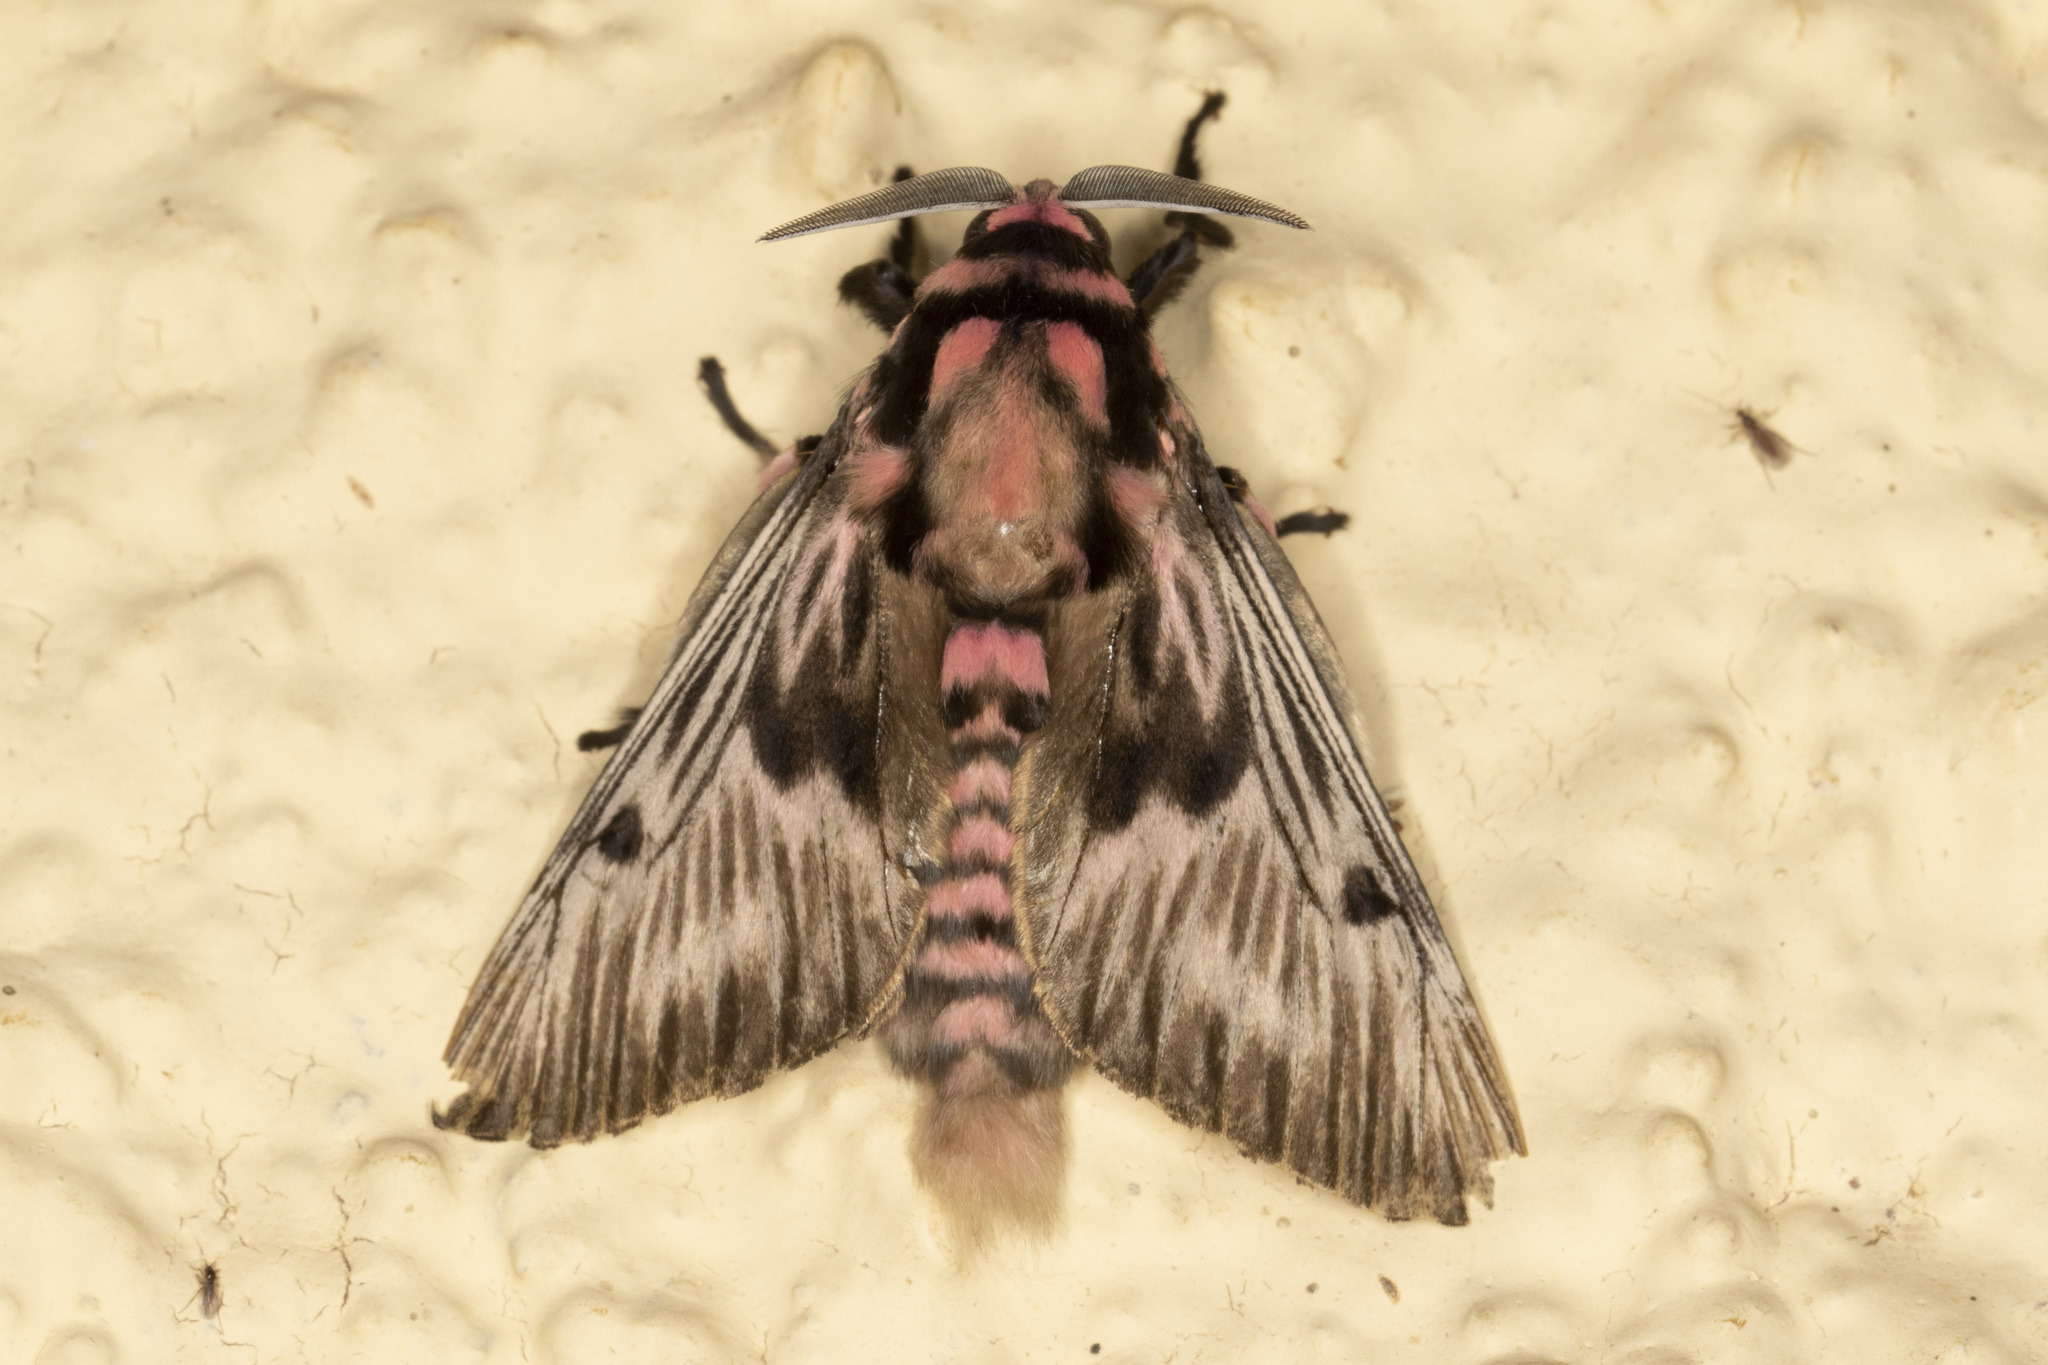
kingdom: Animalia
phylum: Arthropoda
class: Insecta
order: Lepidoptera
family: Megalopygidae
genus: Megalopyge
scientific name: Megalopyge lanata
